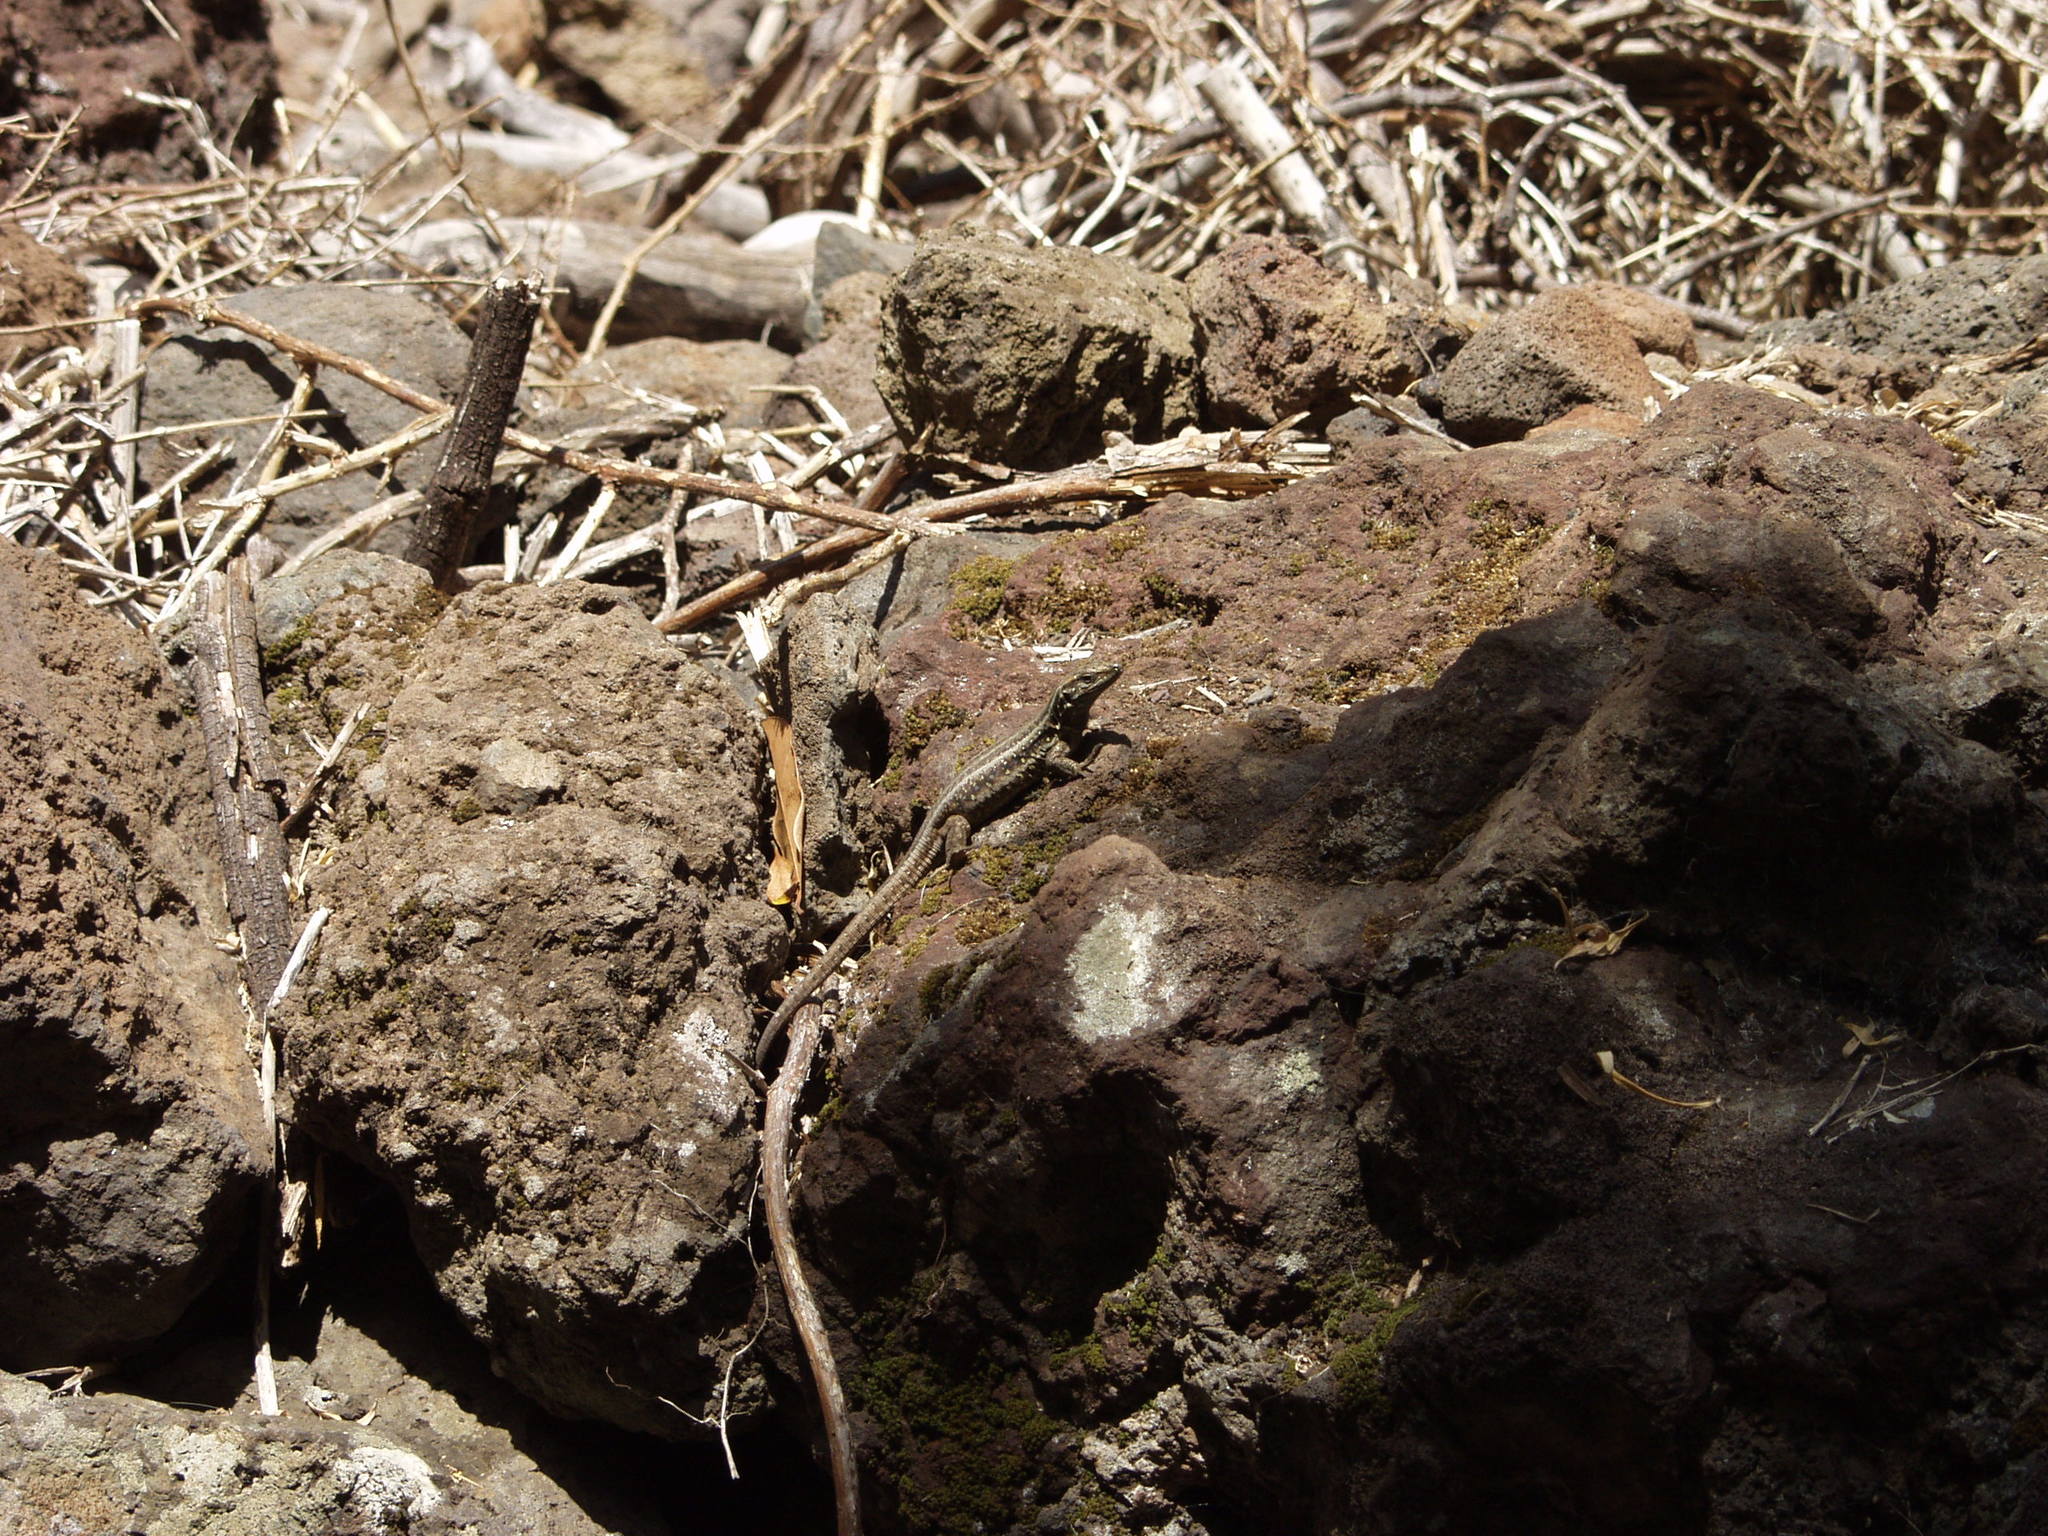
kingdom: Animalia
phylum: Chordata
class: Squamata
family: Lacertidae
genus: Gallotia
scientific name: Gallotia galloti
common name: Gallot's lizard
